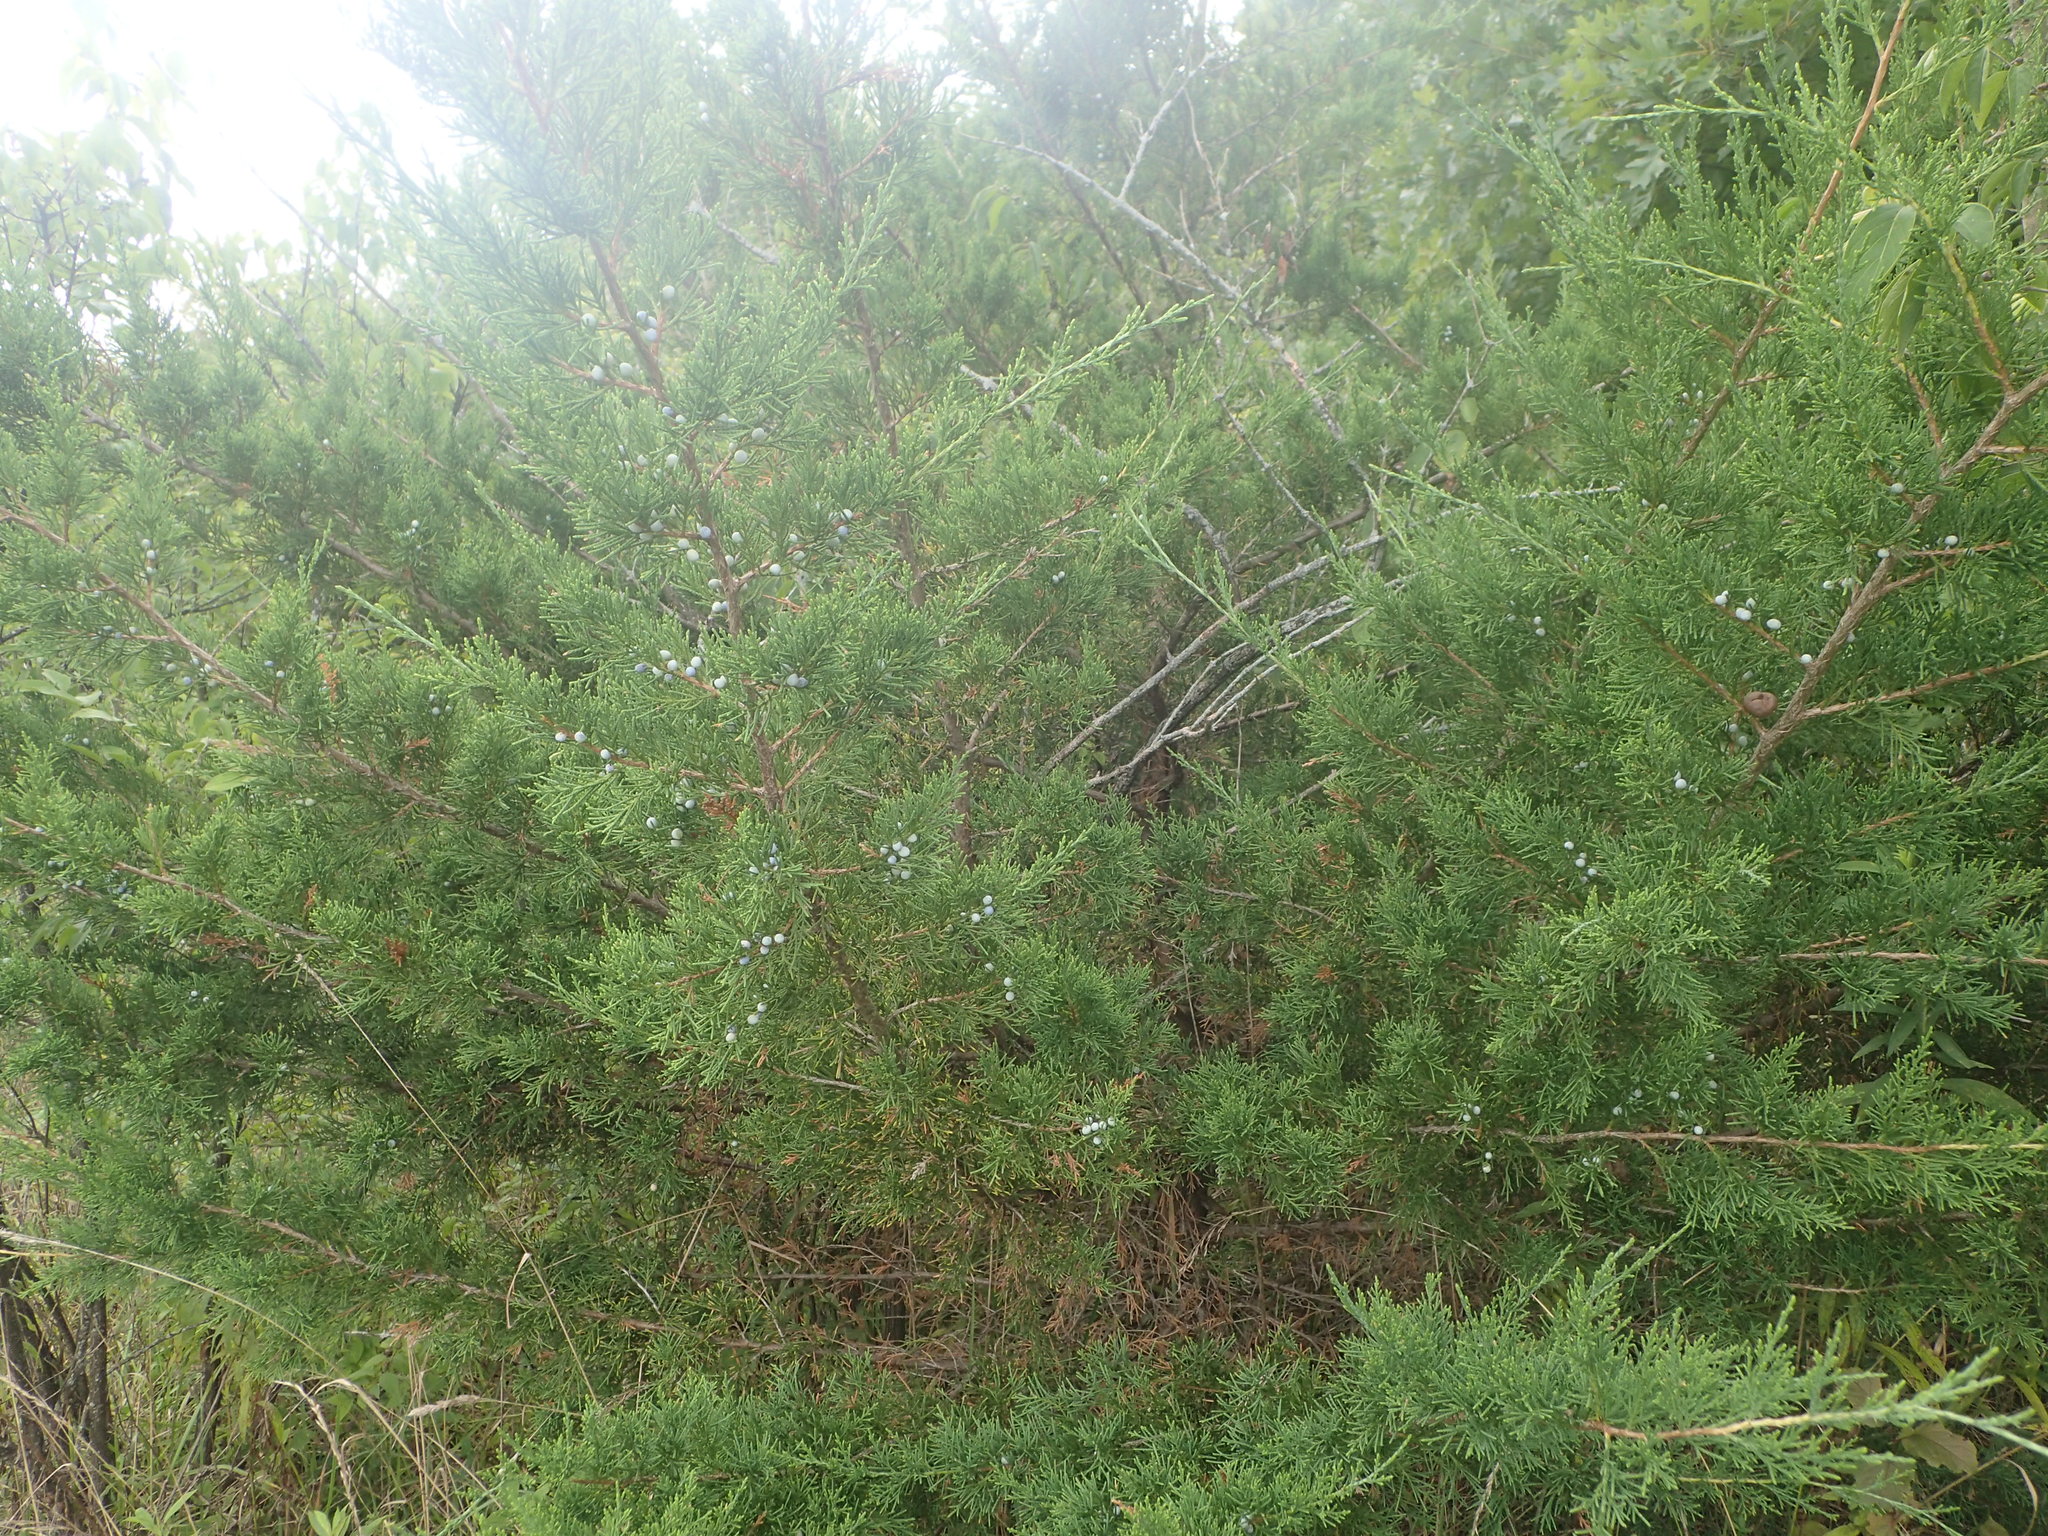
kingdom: Plantae
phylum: Tracheophyta
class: Pinopsida
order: Pinales
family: Cupressaceae
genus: Juniperus
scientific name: Juniperus virginiana
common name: Red juniper
